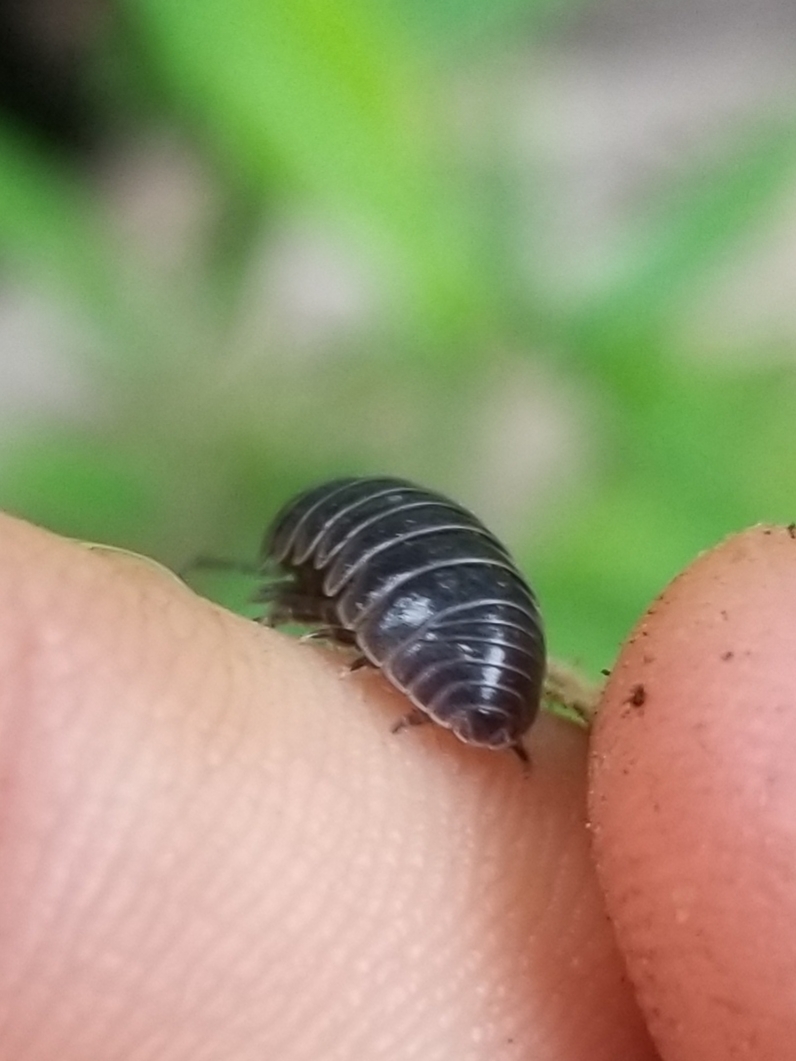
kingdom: Animalia
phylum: Arthropoda
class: Malacostraca
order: Isopoda
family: Armadillidiidae
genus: Armadillidium
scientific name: Armadillidium vulgare
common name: Common pill woodlouse
